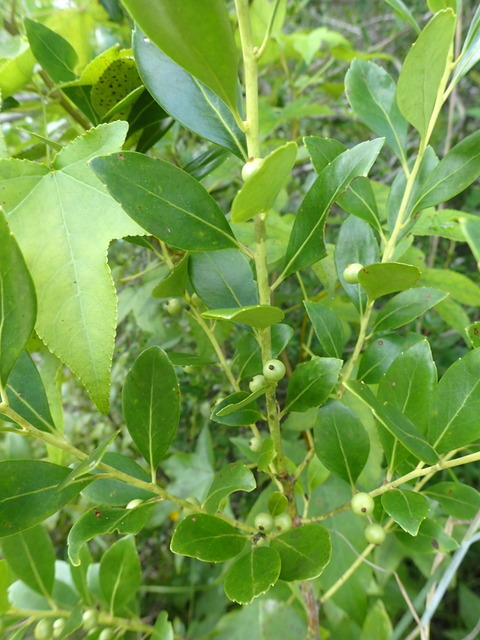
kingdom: Plantae
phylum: Tracheophyta
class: Magnoliopsida
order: Aquifoliales
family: Aquifoliaceae
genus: Ilex
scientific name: Ilex glabra
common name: Bitter gallberry
